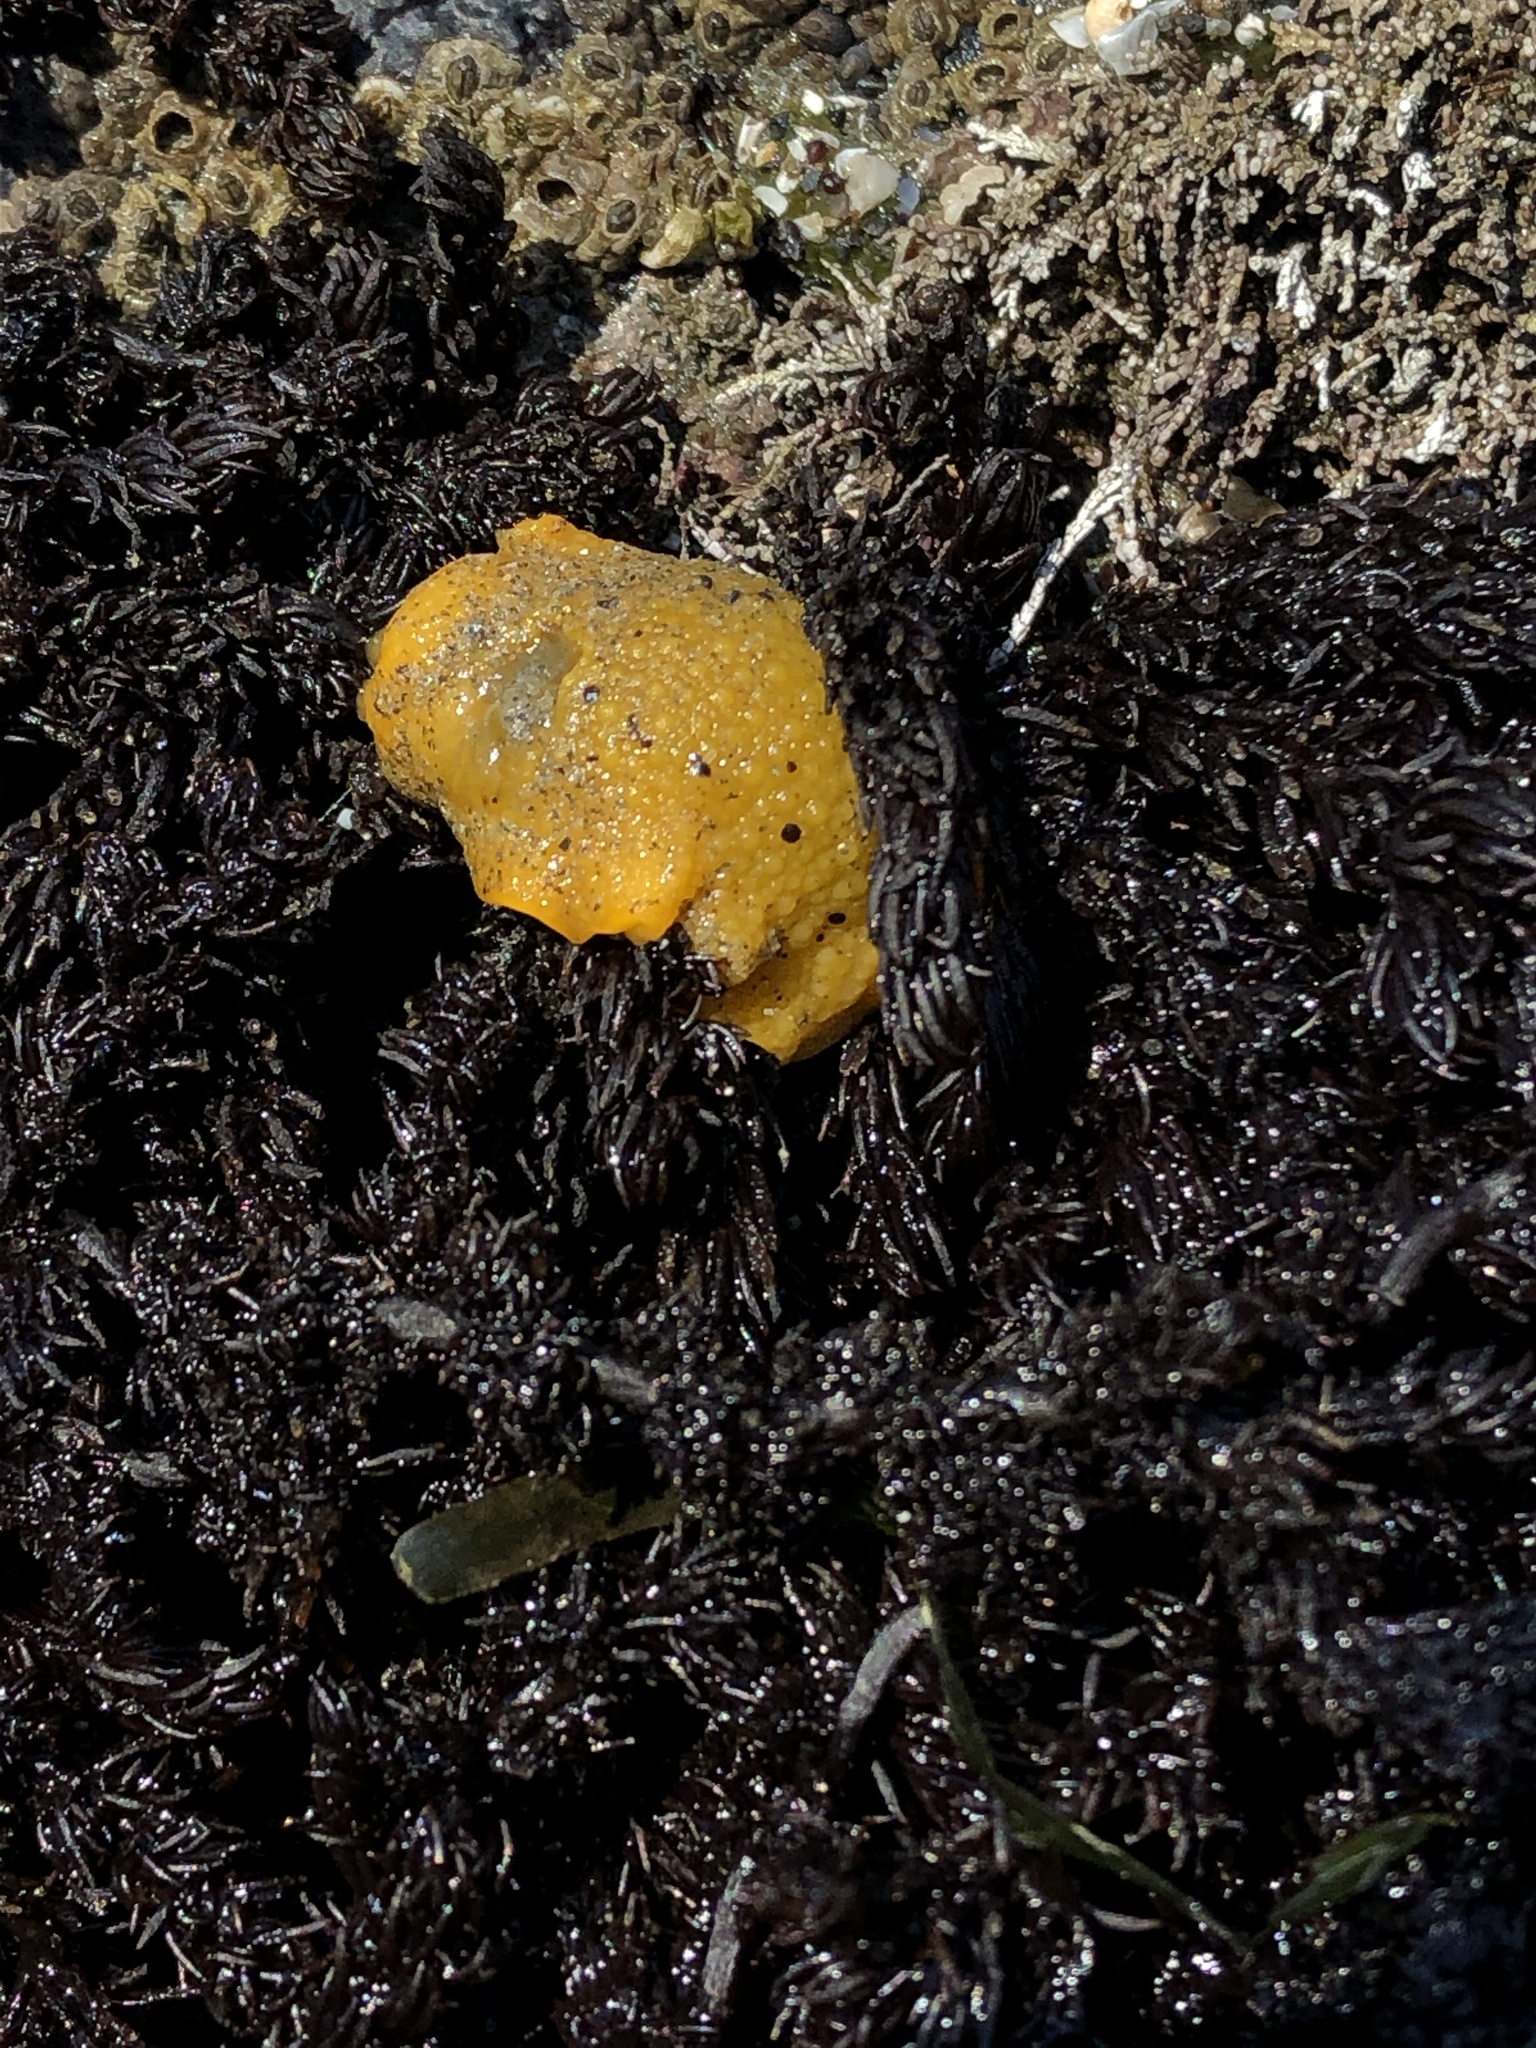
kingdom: Animalia
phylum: Mollusca
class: Gastropoda
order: Nudibranchia
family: Dorididae
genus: Doris
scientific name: Doris montereyensis
